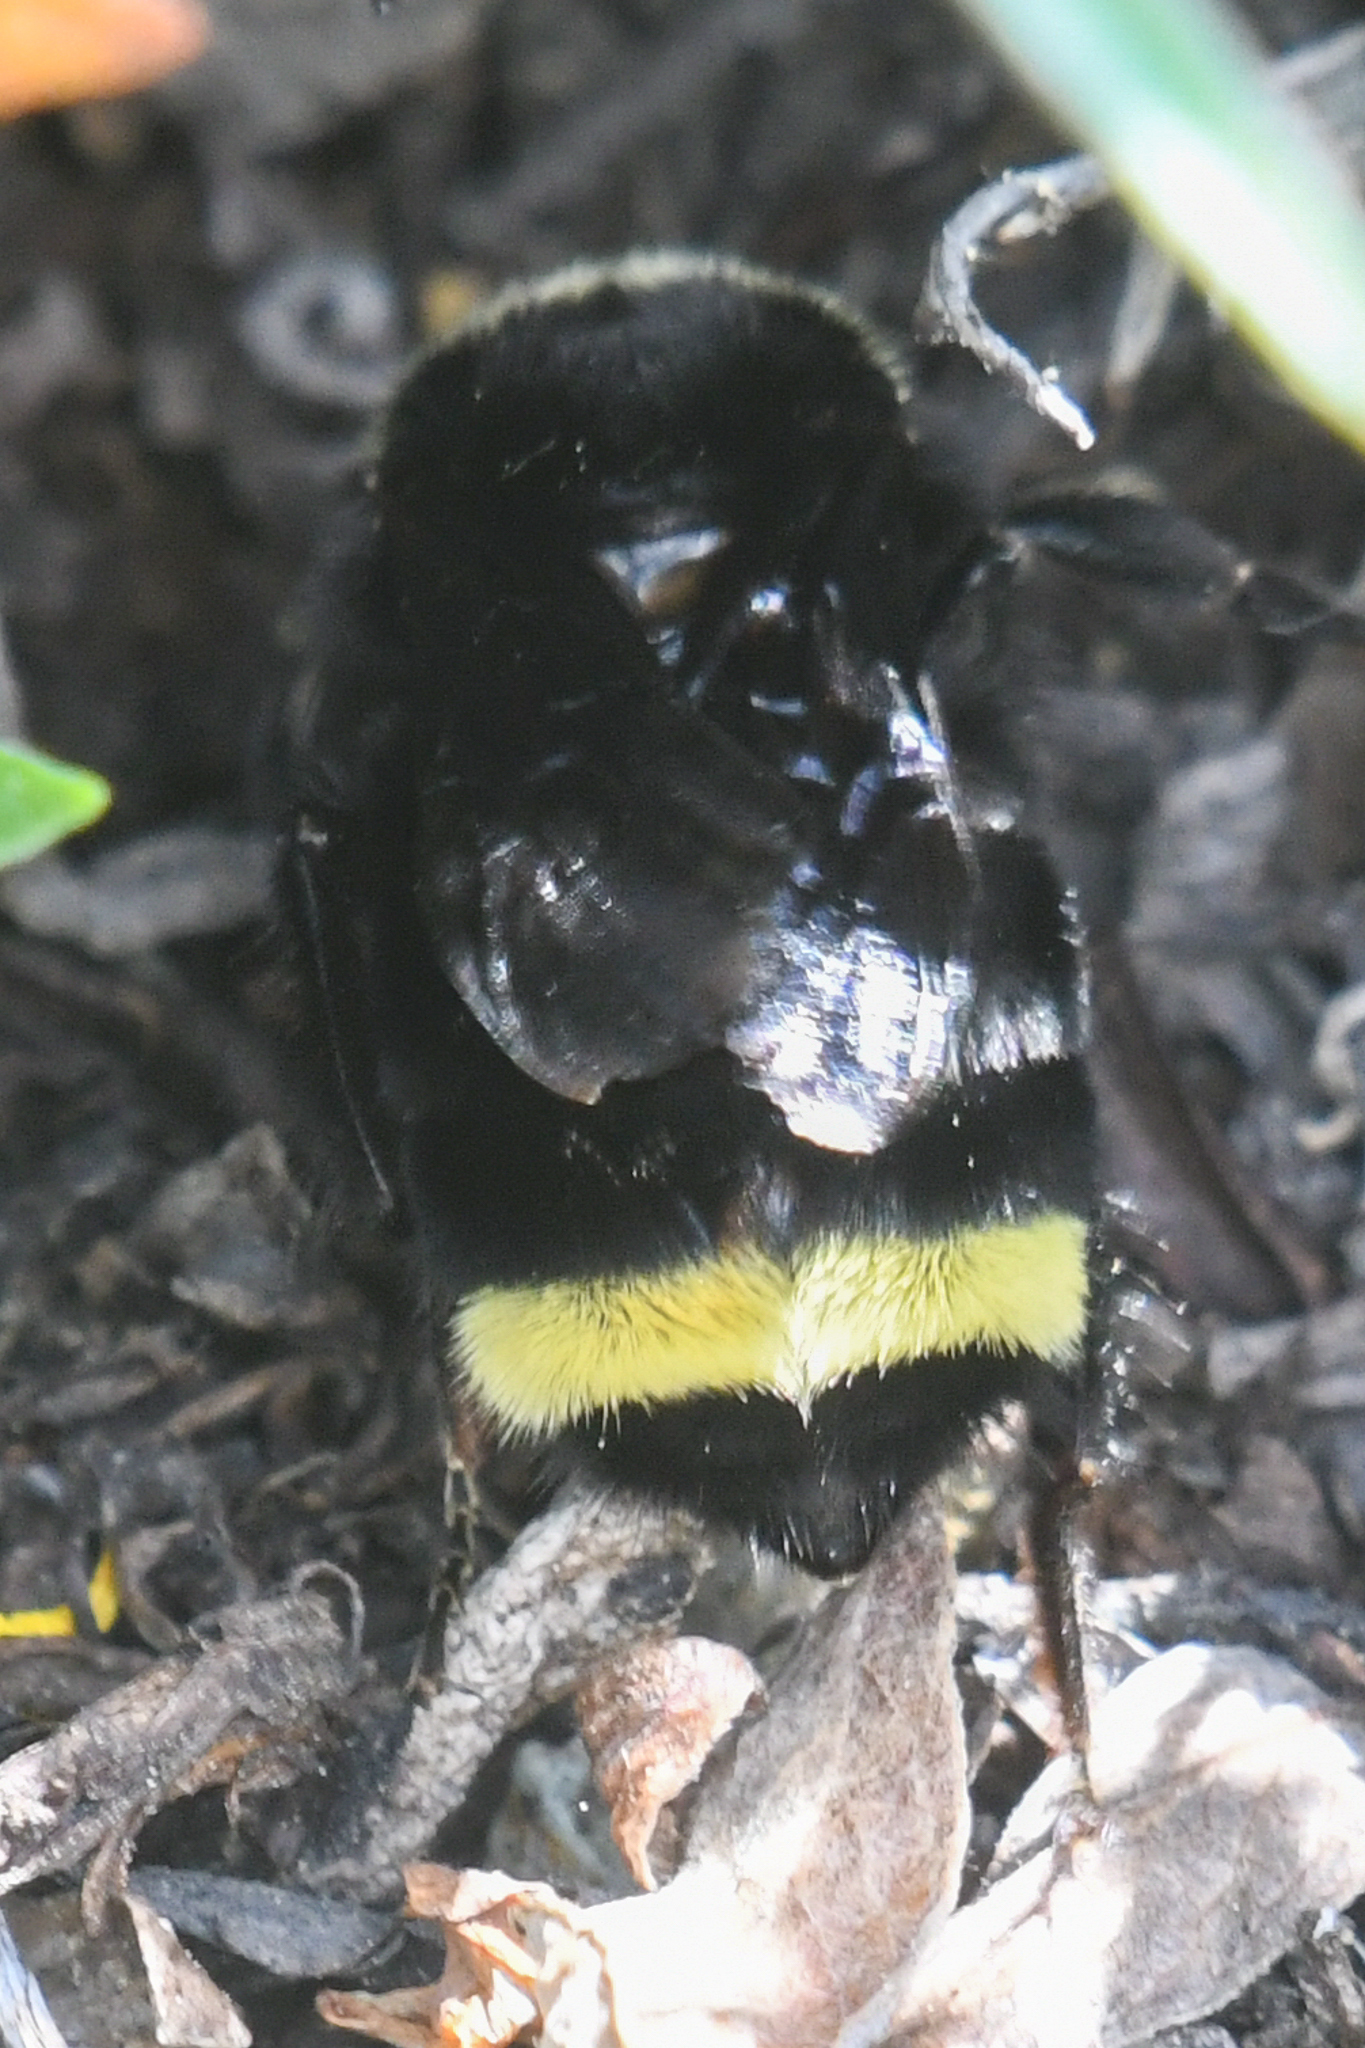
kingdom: Animalia
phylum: Arthropoda
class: Insecta
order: Hymenoptera
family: Apidae
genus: Bombus
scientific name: Bombus vosnesenskii
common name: Vosnesensky bumble bee
